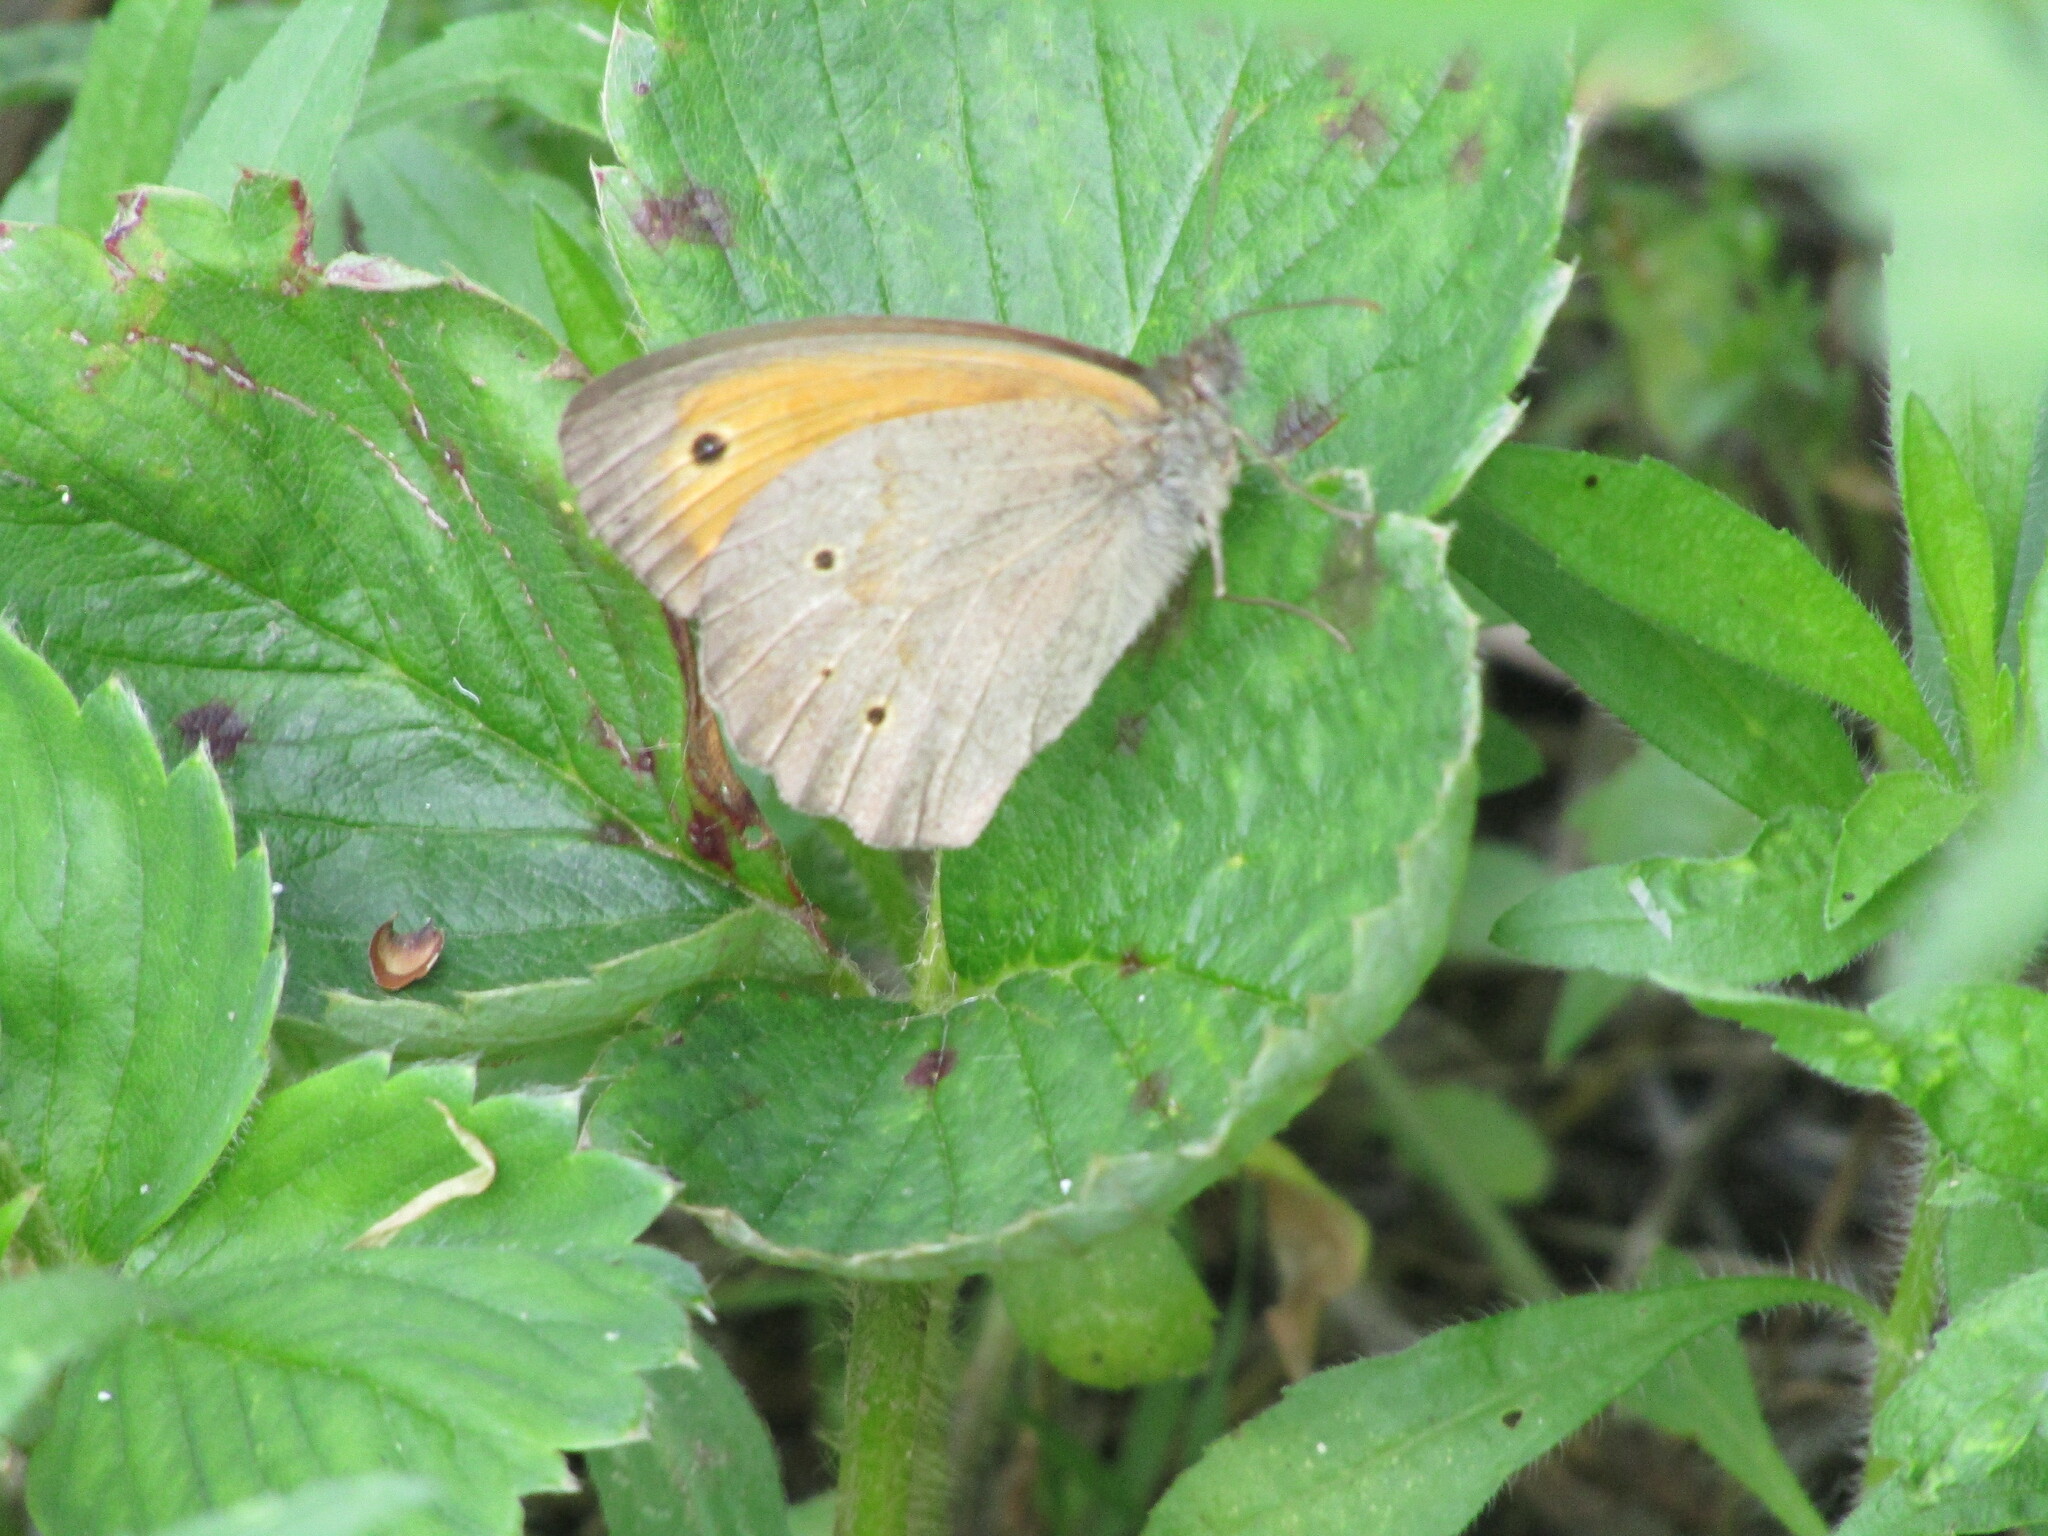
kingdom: Animalia
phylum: Arthropoda
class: Insecta
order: Lepidoptera
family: Nymphalidae
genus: Maniola
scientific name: Maniola jurtina
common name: Meadow brown
